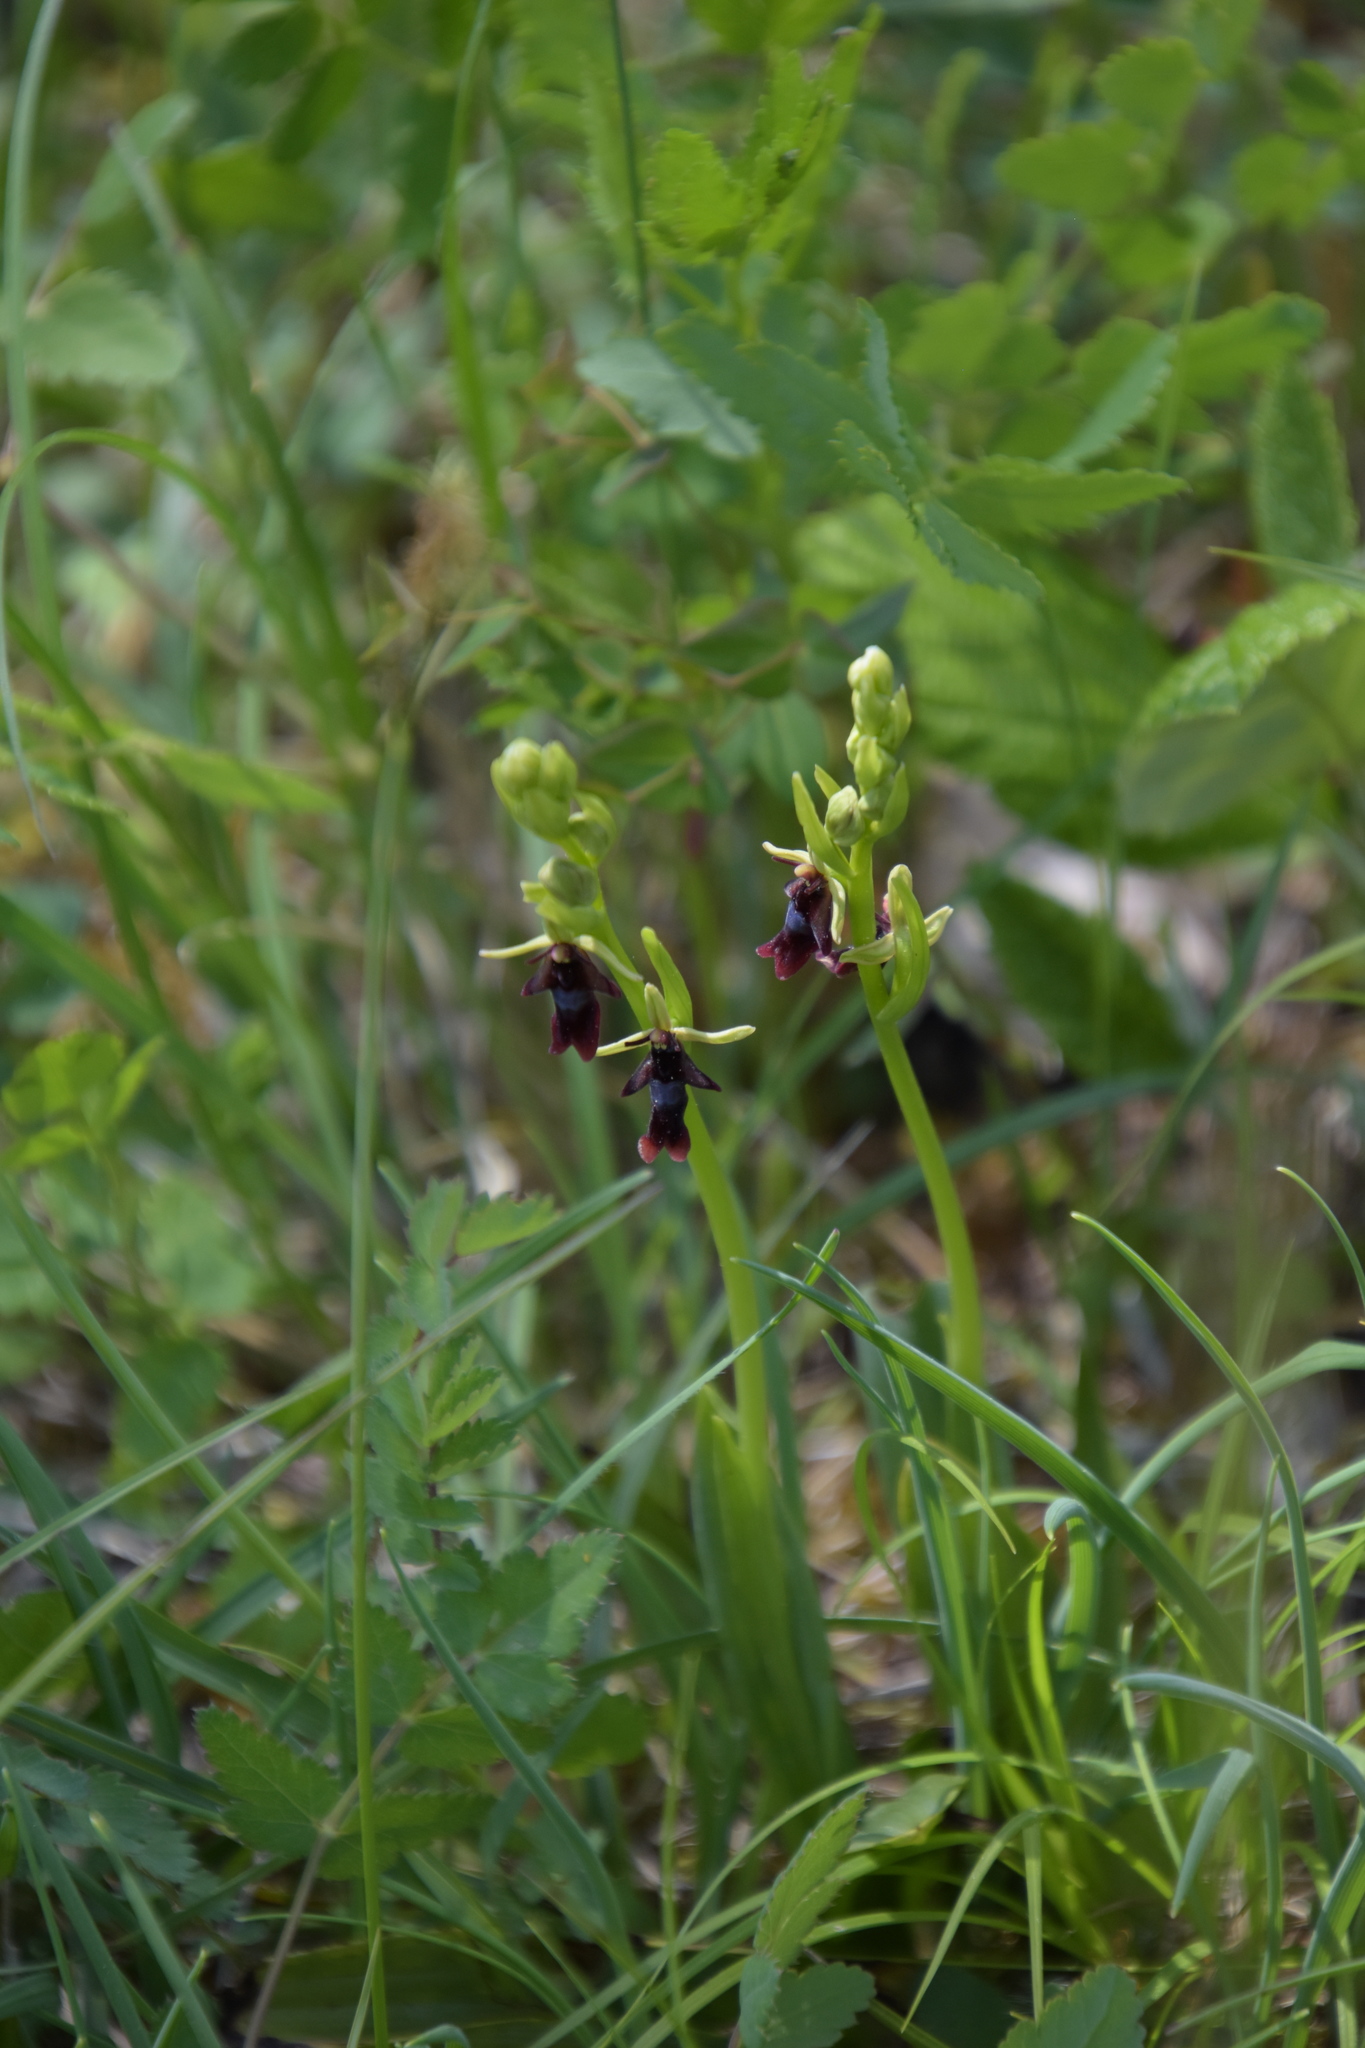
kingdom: Plantae
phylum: Tracheophyta
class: Liliopsida
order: Asparagales
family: Orchidaceae
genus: Ophrys
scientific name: Ophrys insectifera
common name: Fly orchid
